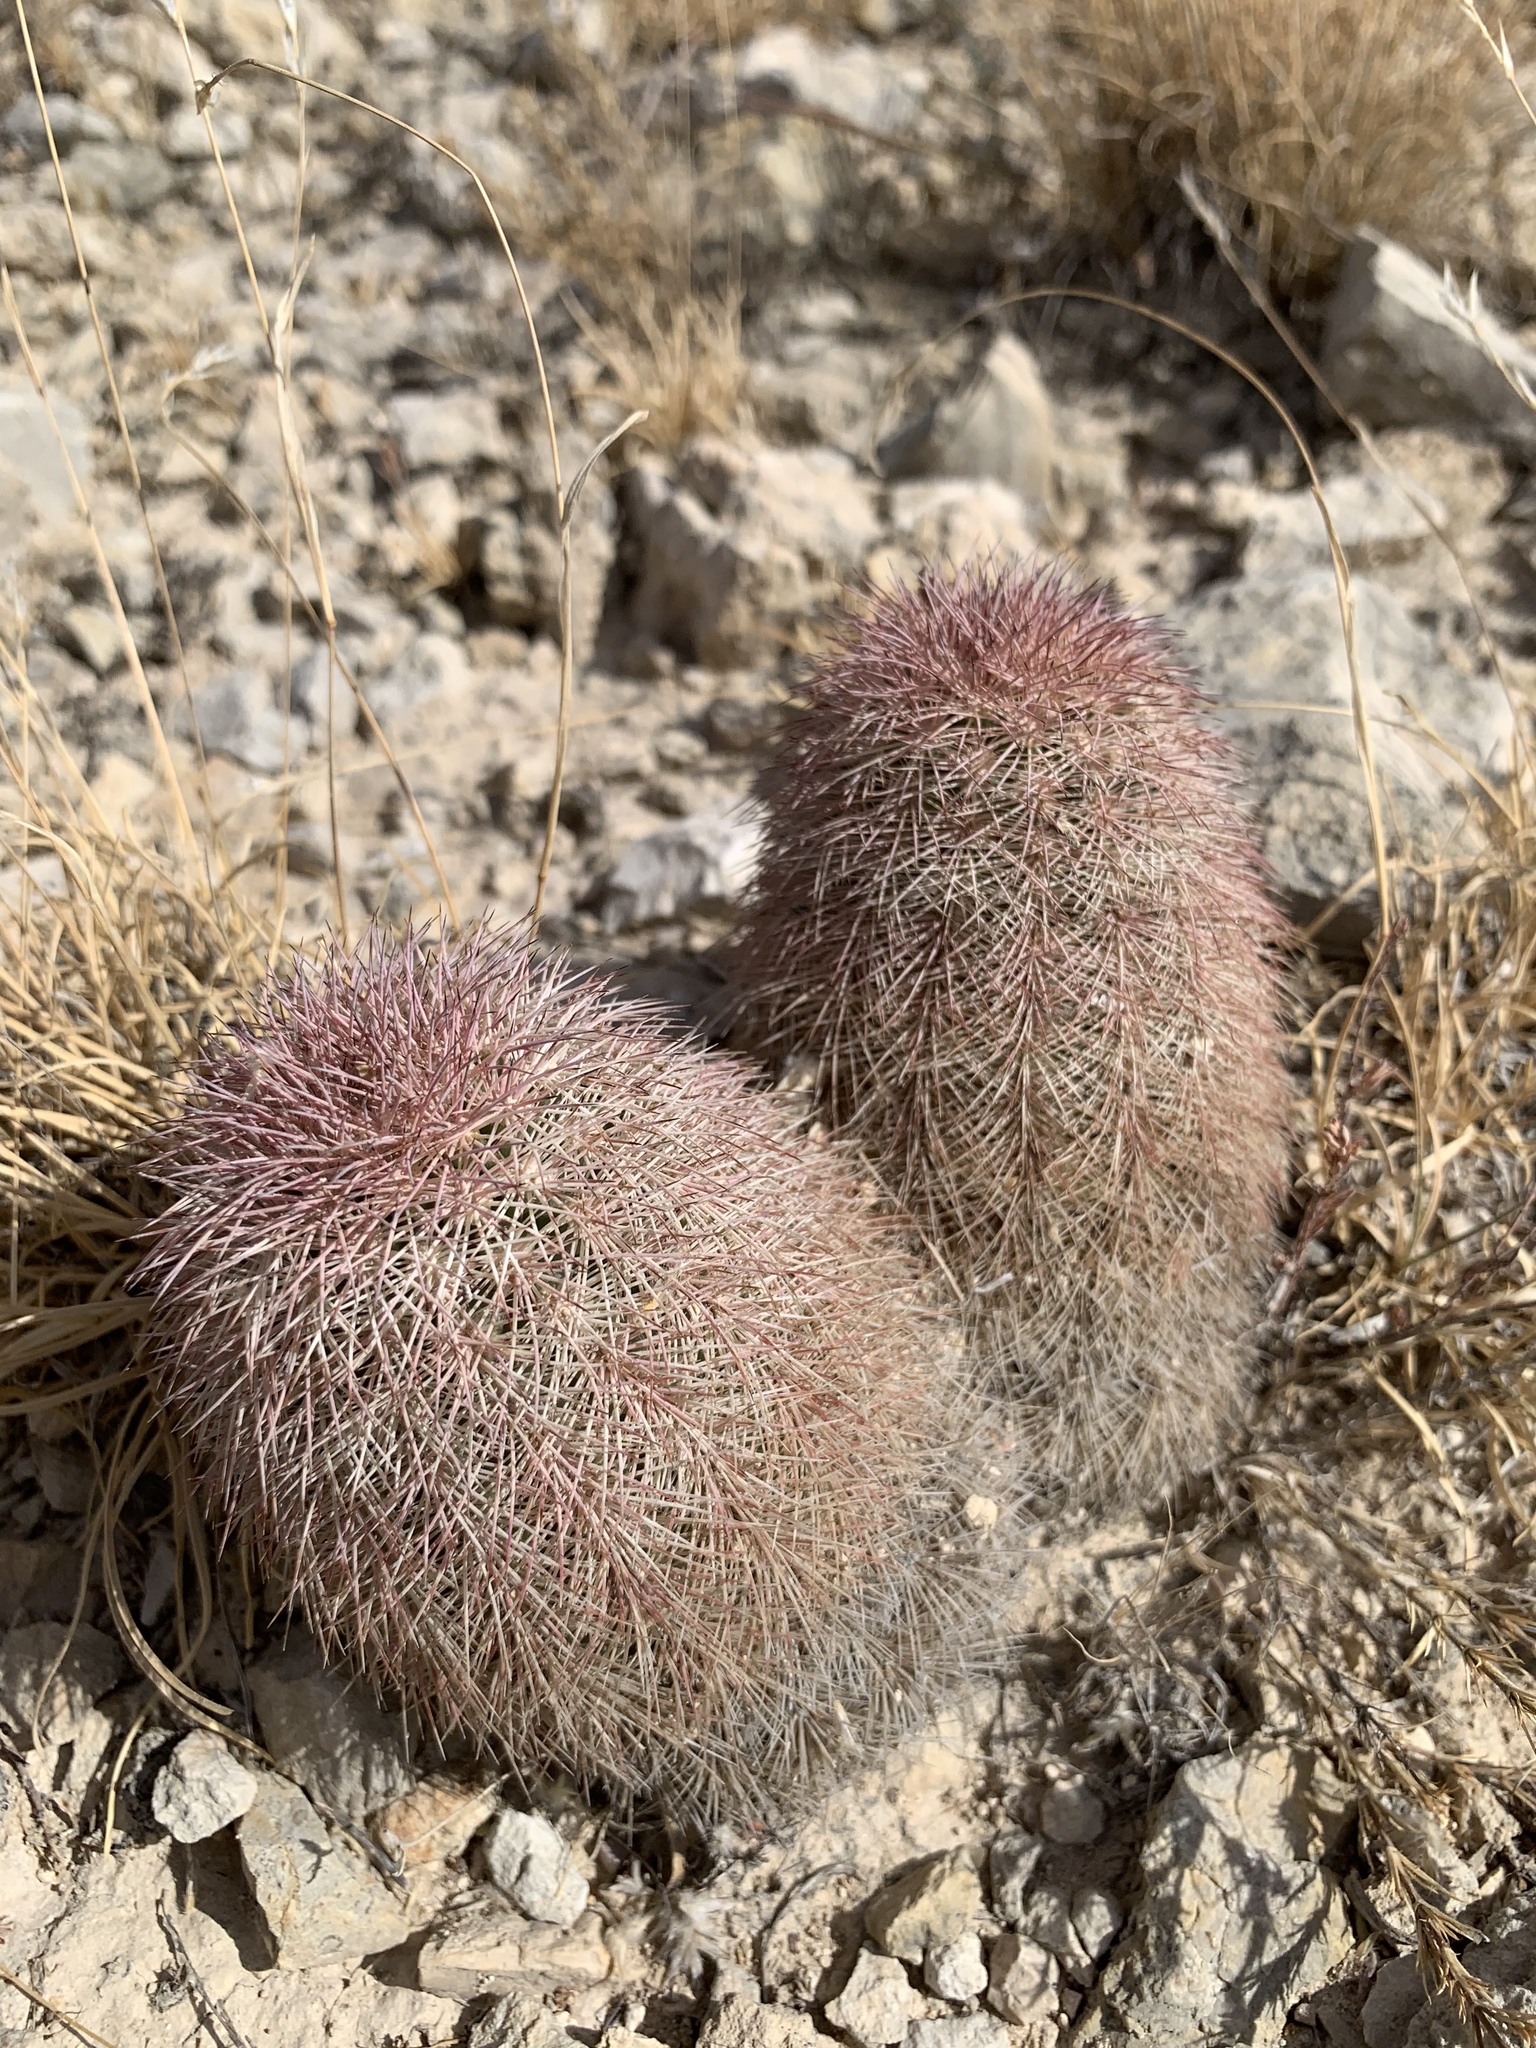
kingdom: Plantae
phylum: Tracheophyta
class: Magnoliopsida
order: Caryophyllales
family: Cactaceae
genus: Echinocereus
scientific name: Echinocereus dasyacanthus
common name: Spiny hedgehog cactus
